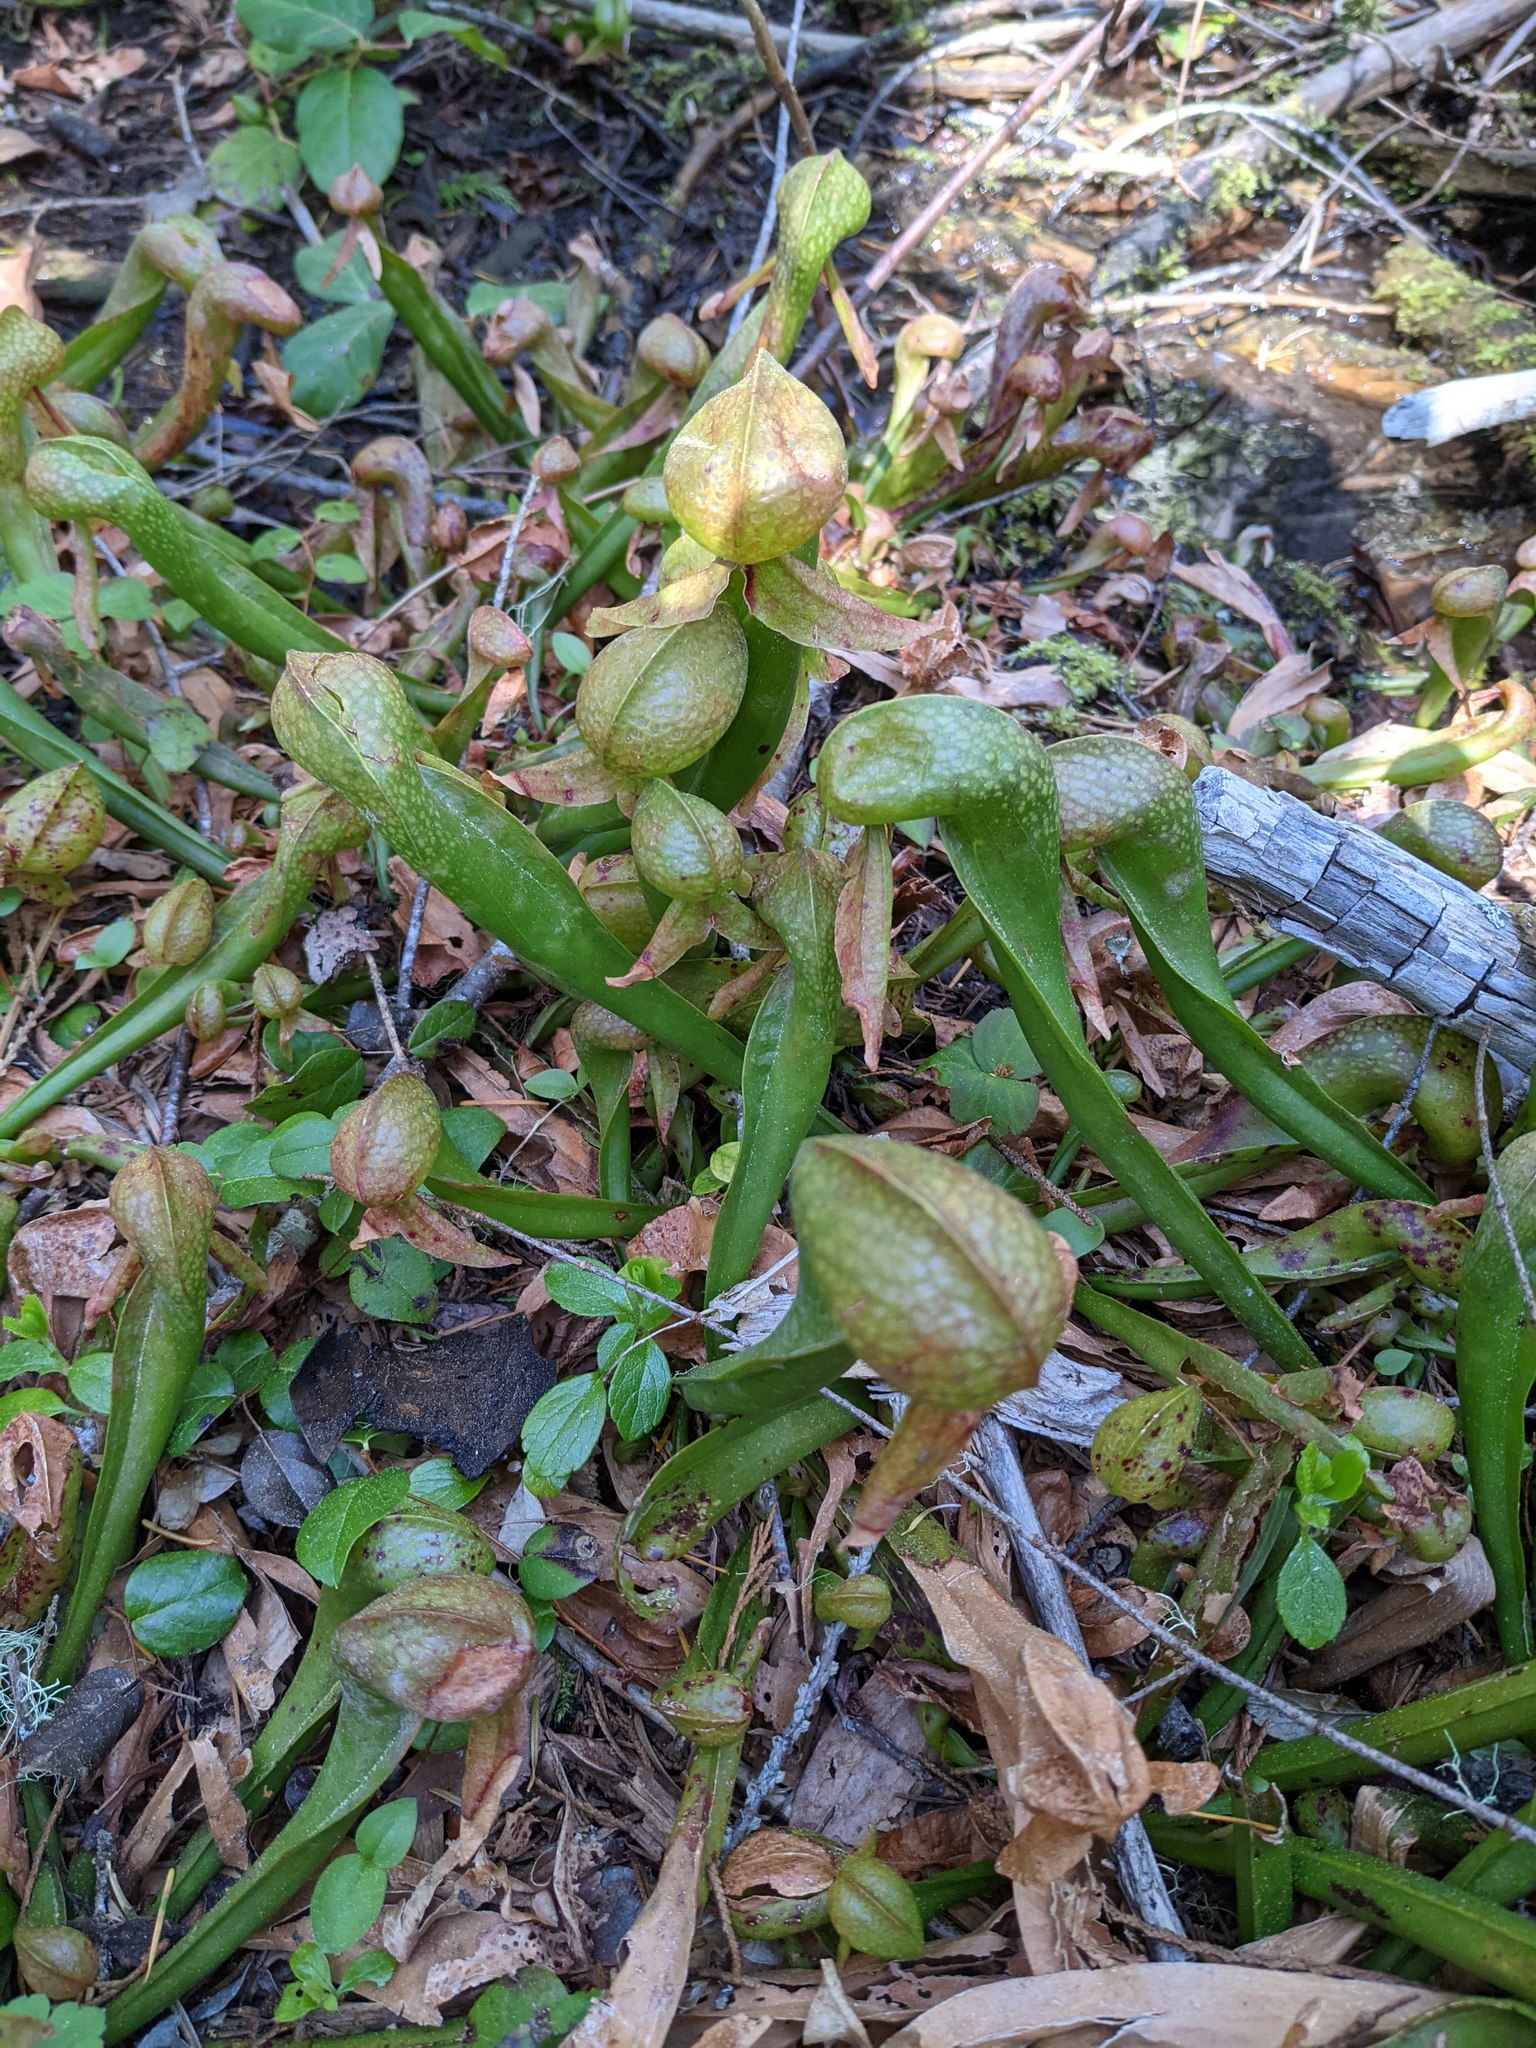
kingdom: Plantae
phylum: Tracheophyta
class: Magnoliopsida
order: Ericales
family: Sarraceniaceae
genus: Darlingtonia
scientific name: Darlingtonia californica
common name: California pitcher plant
